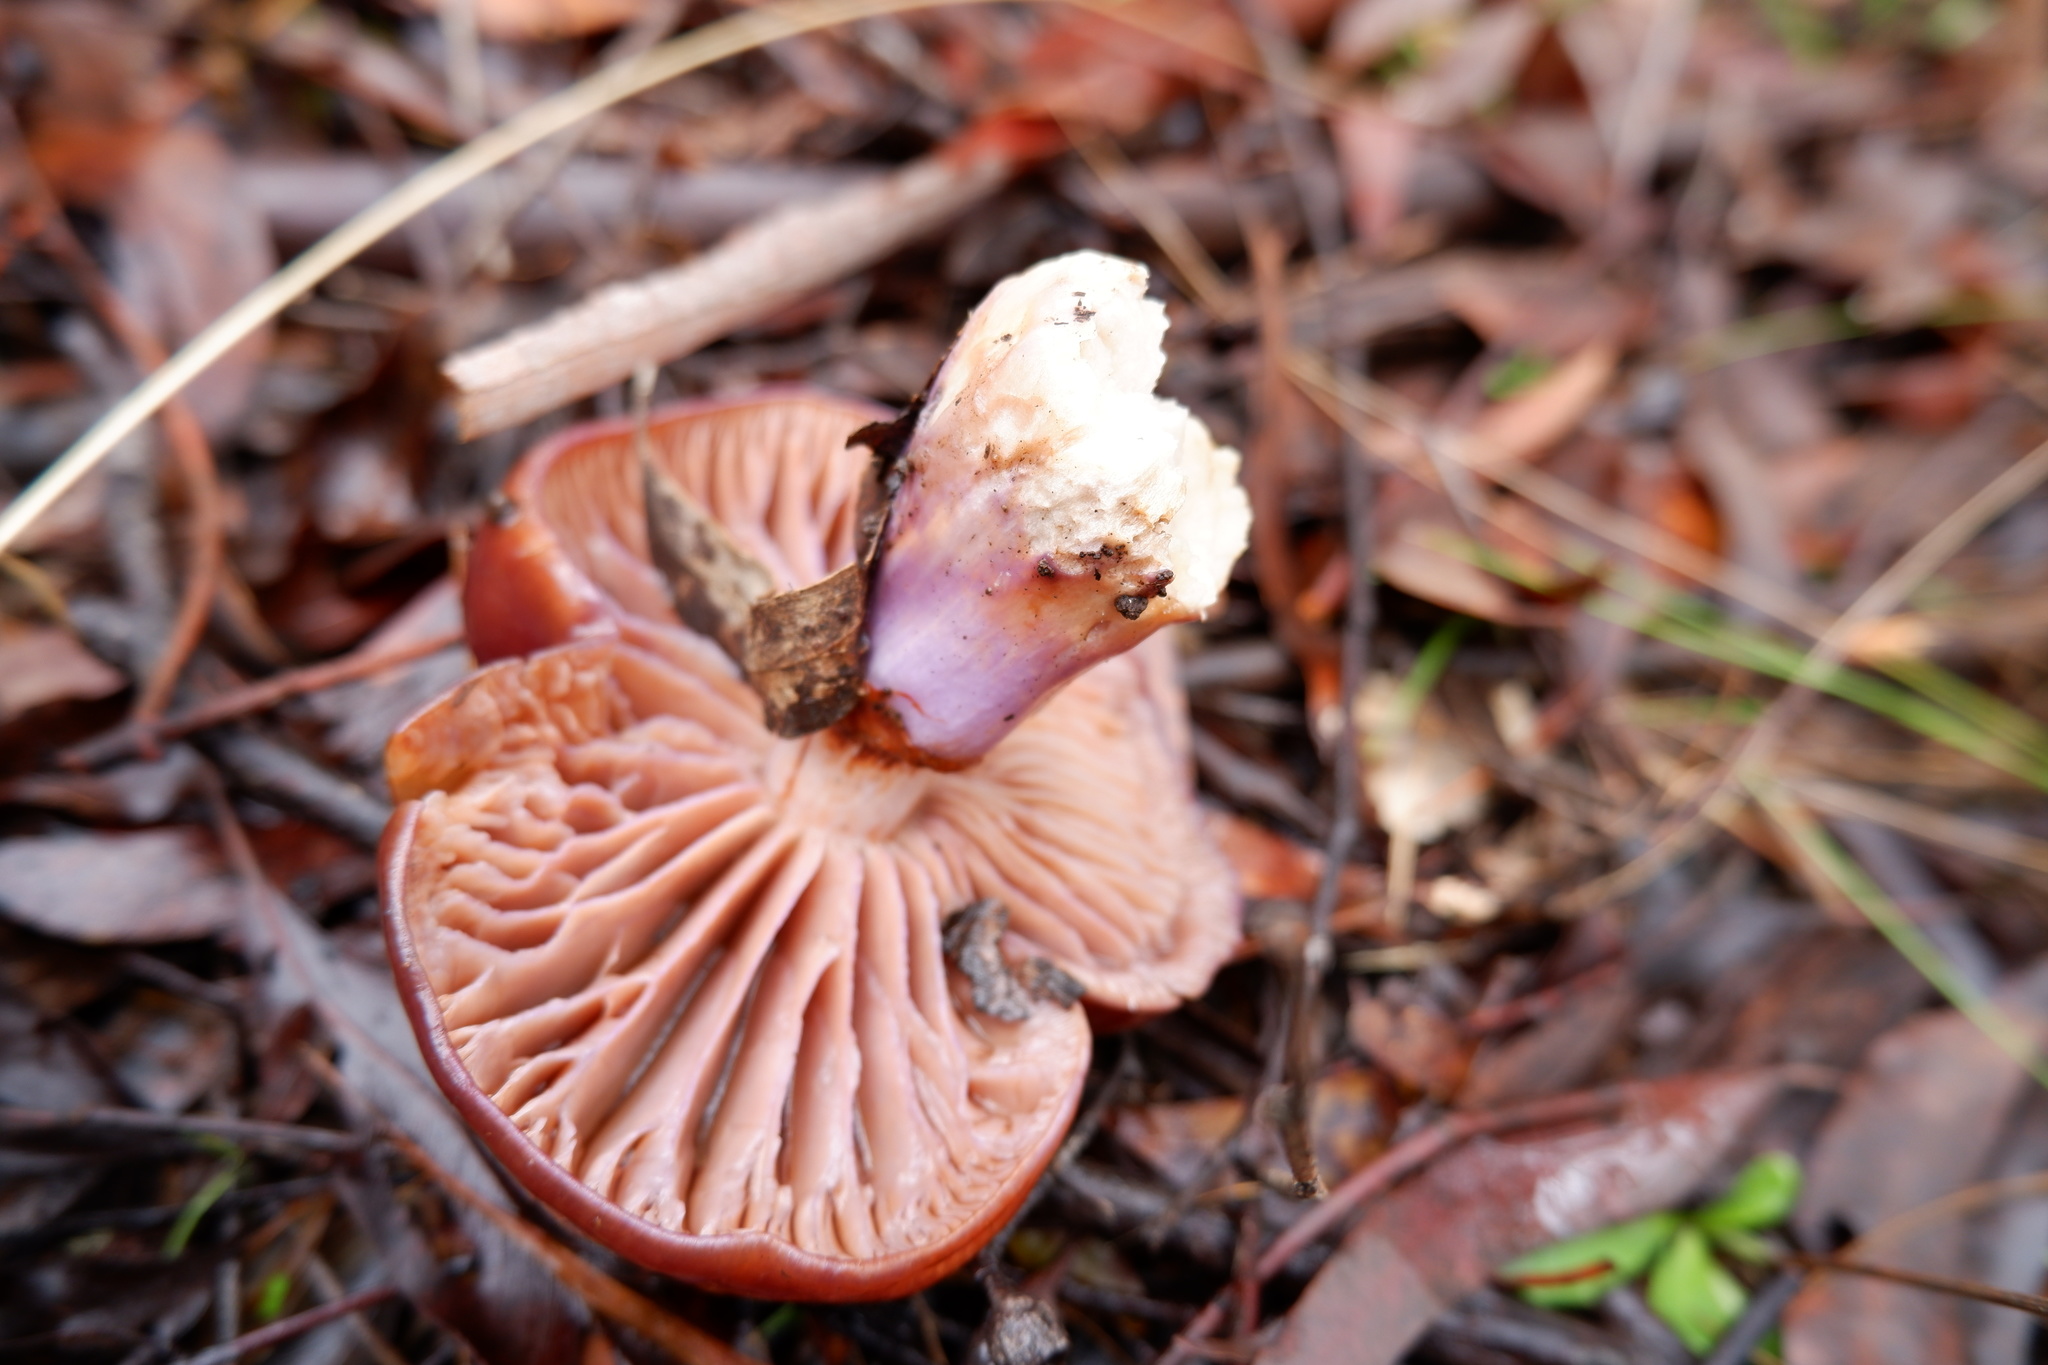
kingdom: Fungi
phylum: Basidiomycota
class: Agaricomycetes
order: Agaricales
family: Cortinariaceae
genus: Cortinarius
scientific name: Cortinarius archeri
